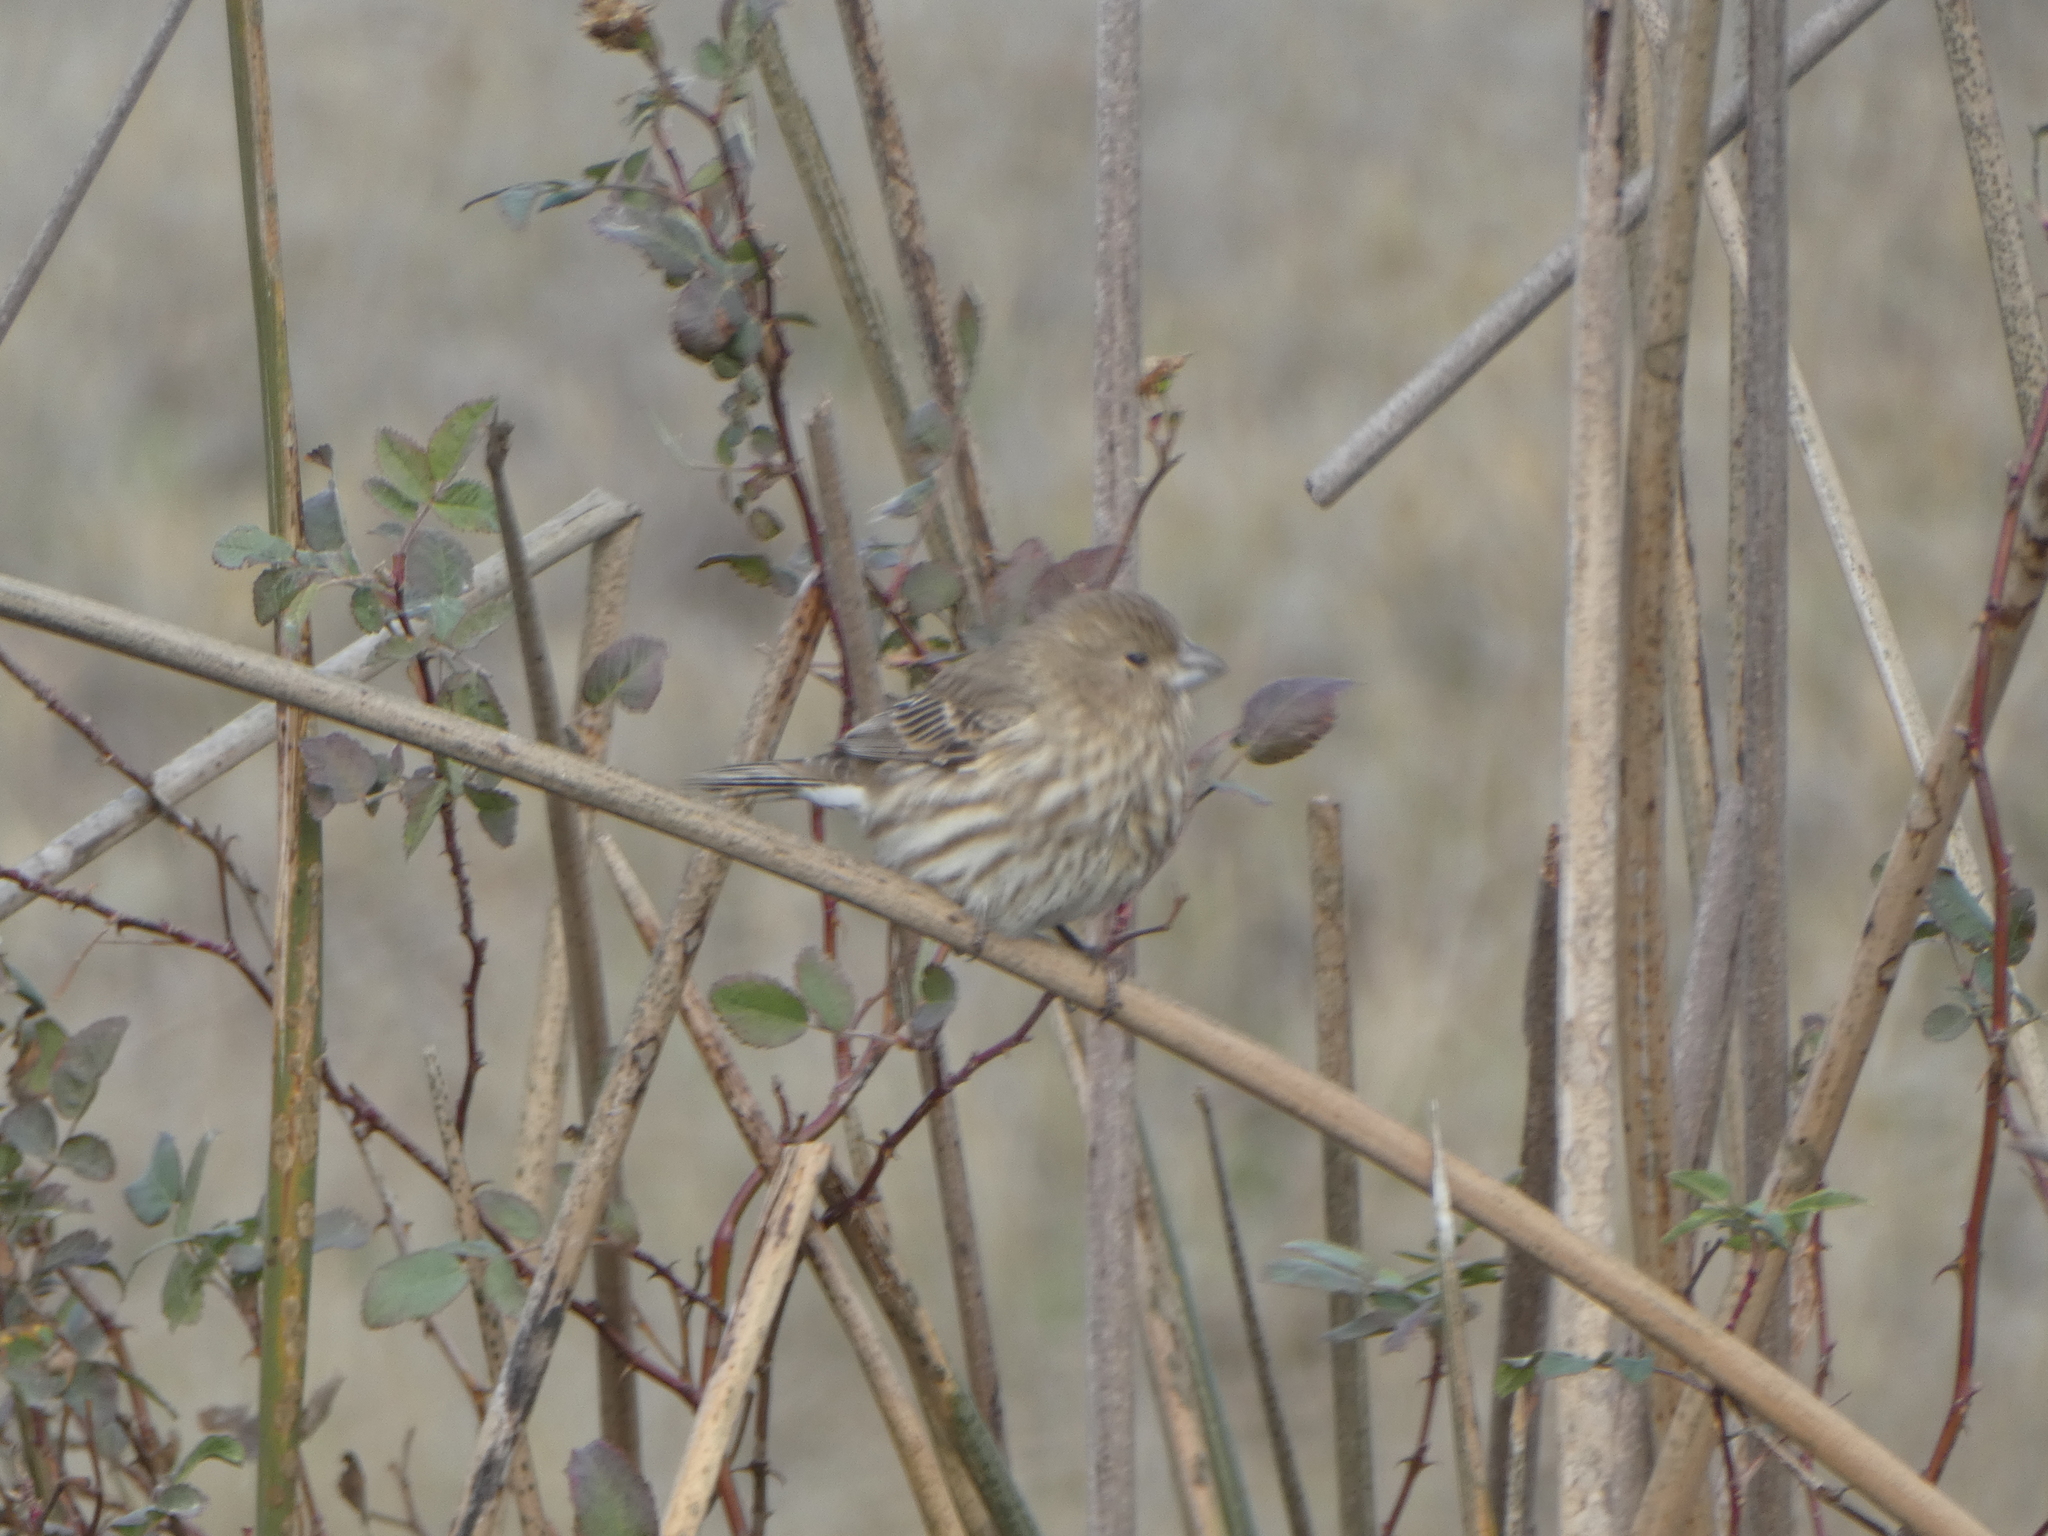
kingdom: Animalia
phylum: Chordata
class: Aves
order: Passeriformes
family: Fringillidae
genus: Haemorhous
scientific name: Haemorhous mexicanus
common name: House finch
